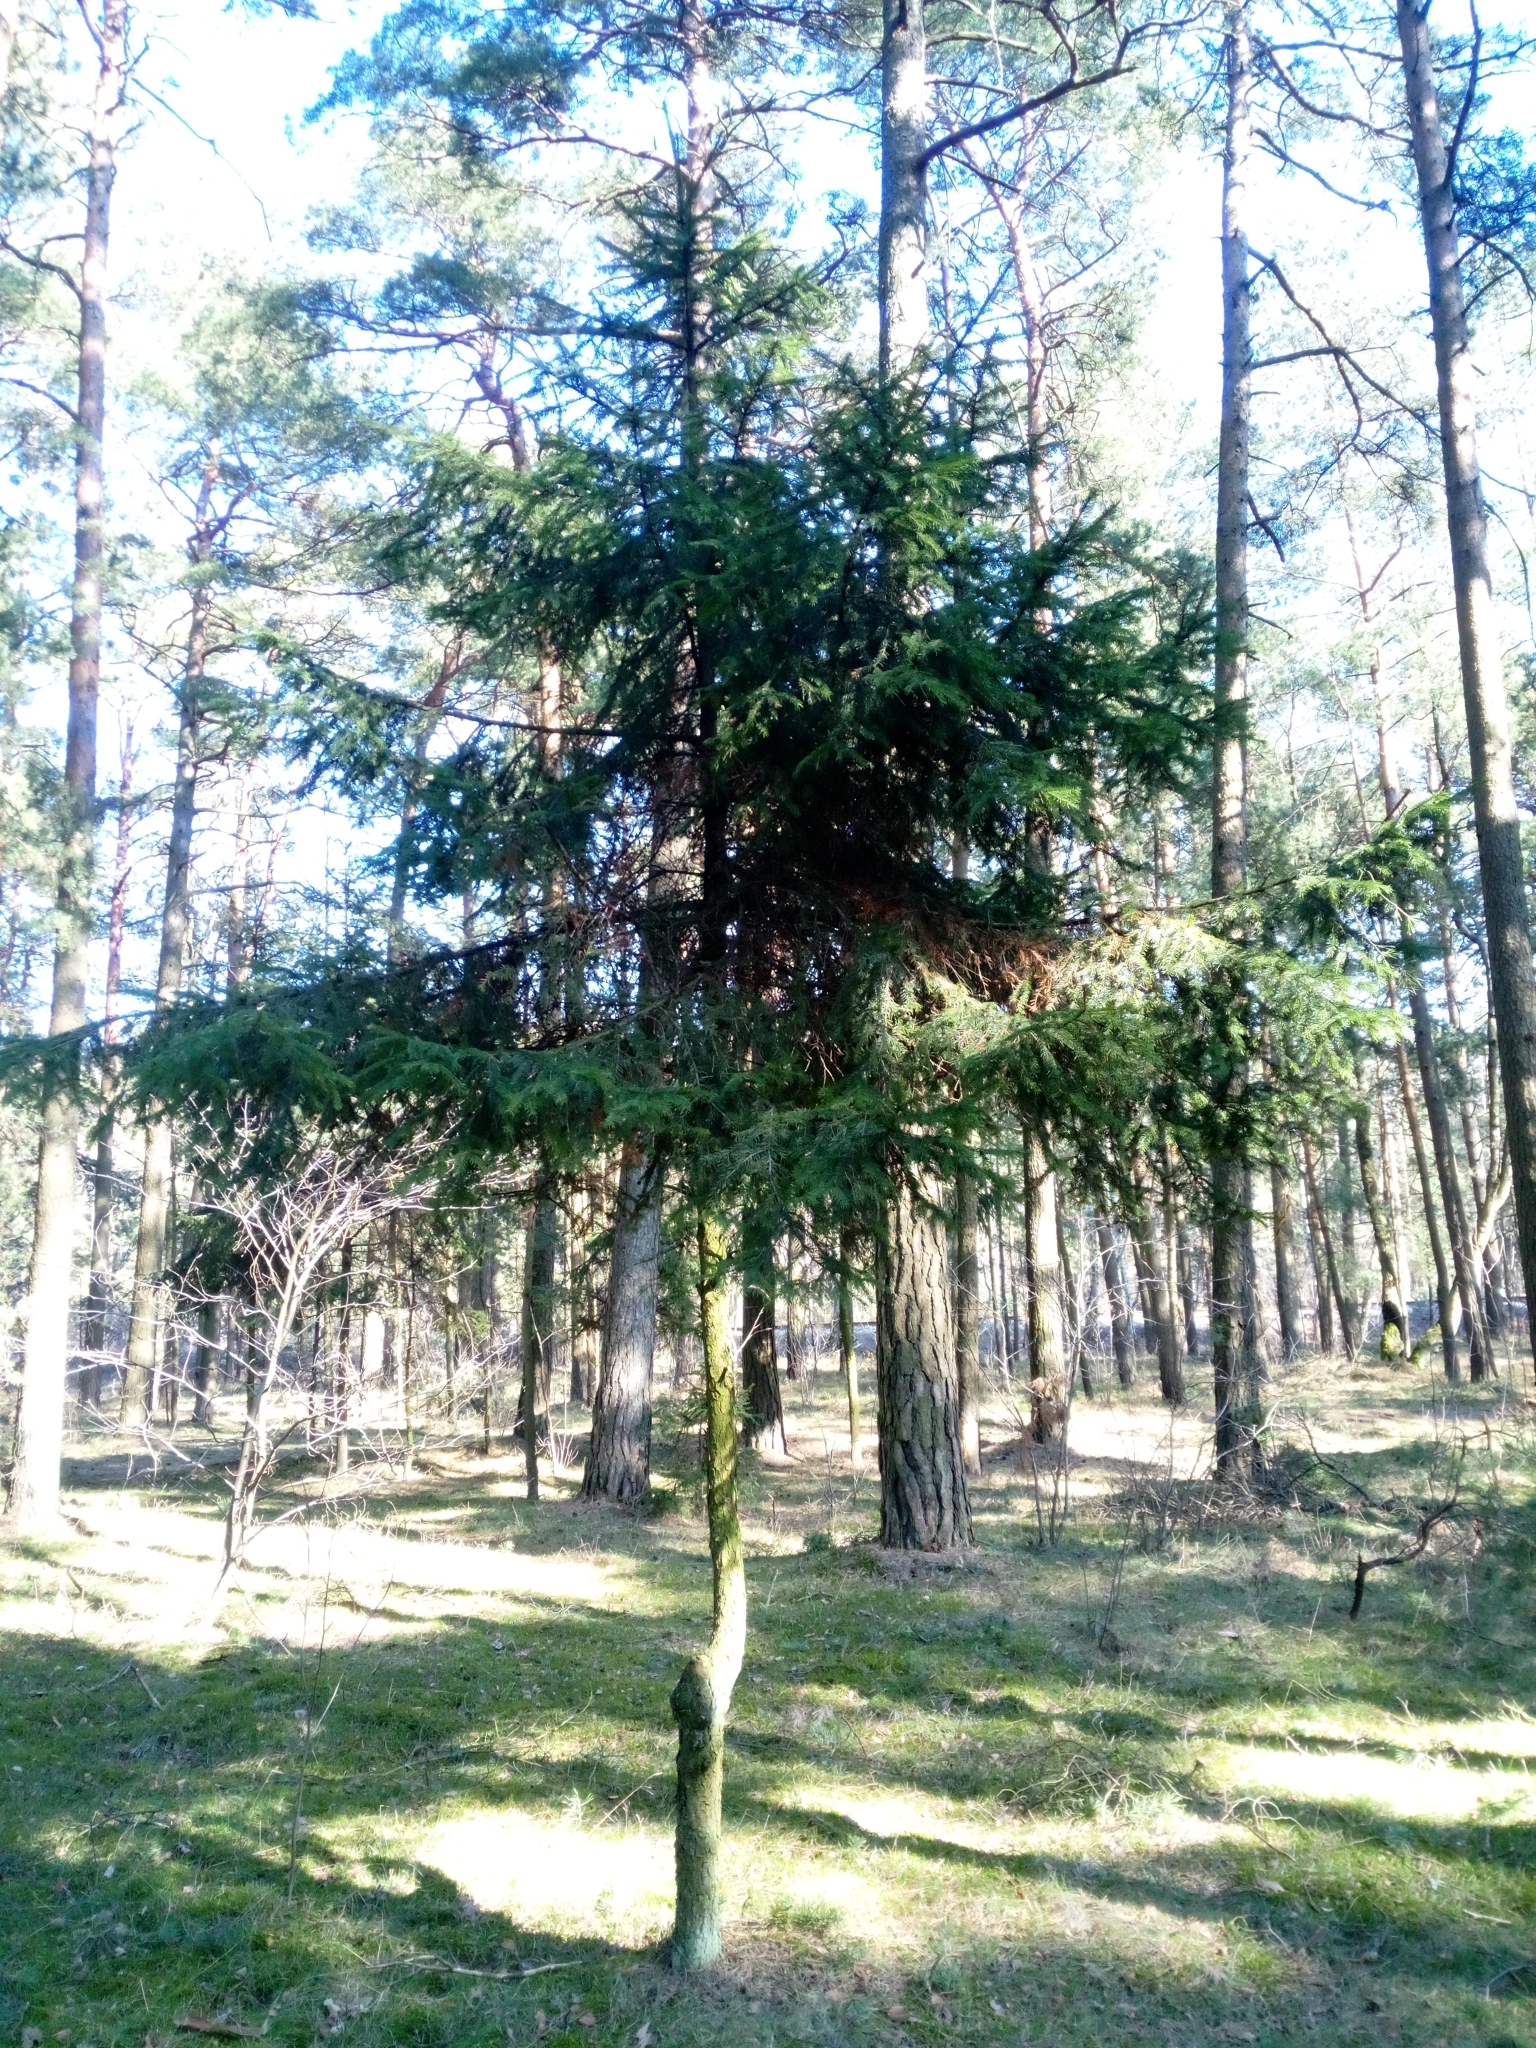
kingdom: Plantae
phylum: Tracheophyta
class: Pinopsida
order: Pinales
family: Pinaceae
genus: Picea
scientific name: Picea abies
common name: Norway spruce
